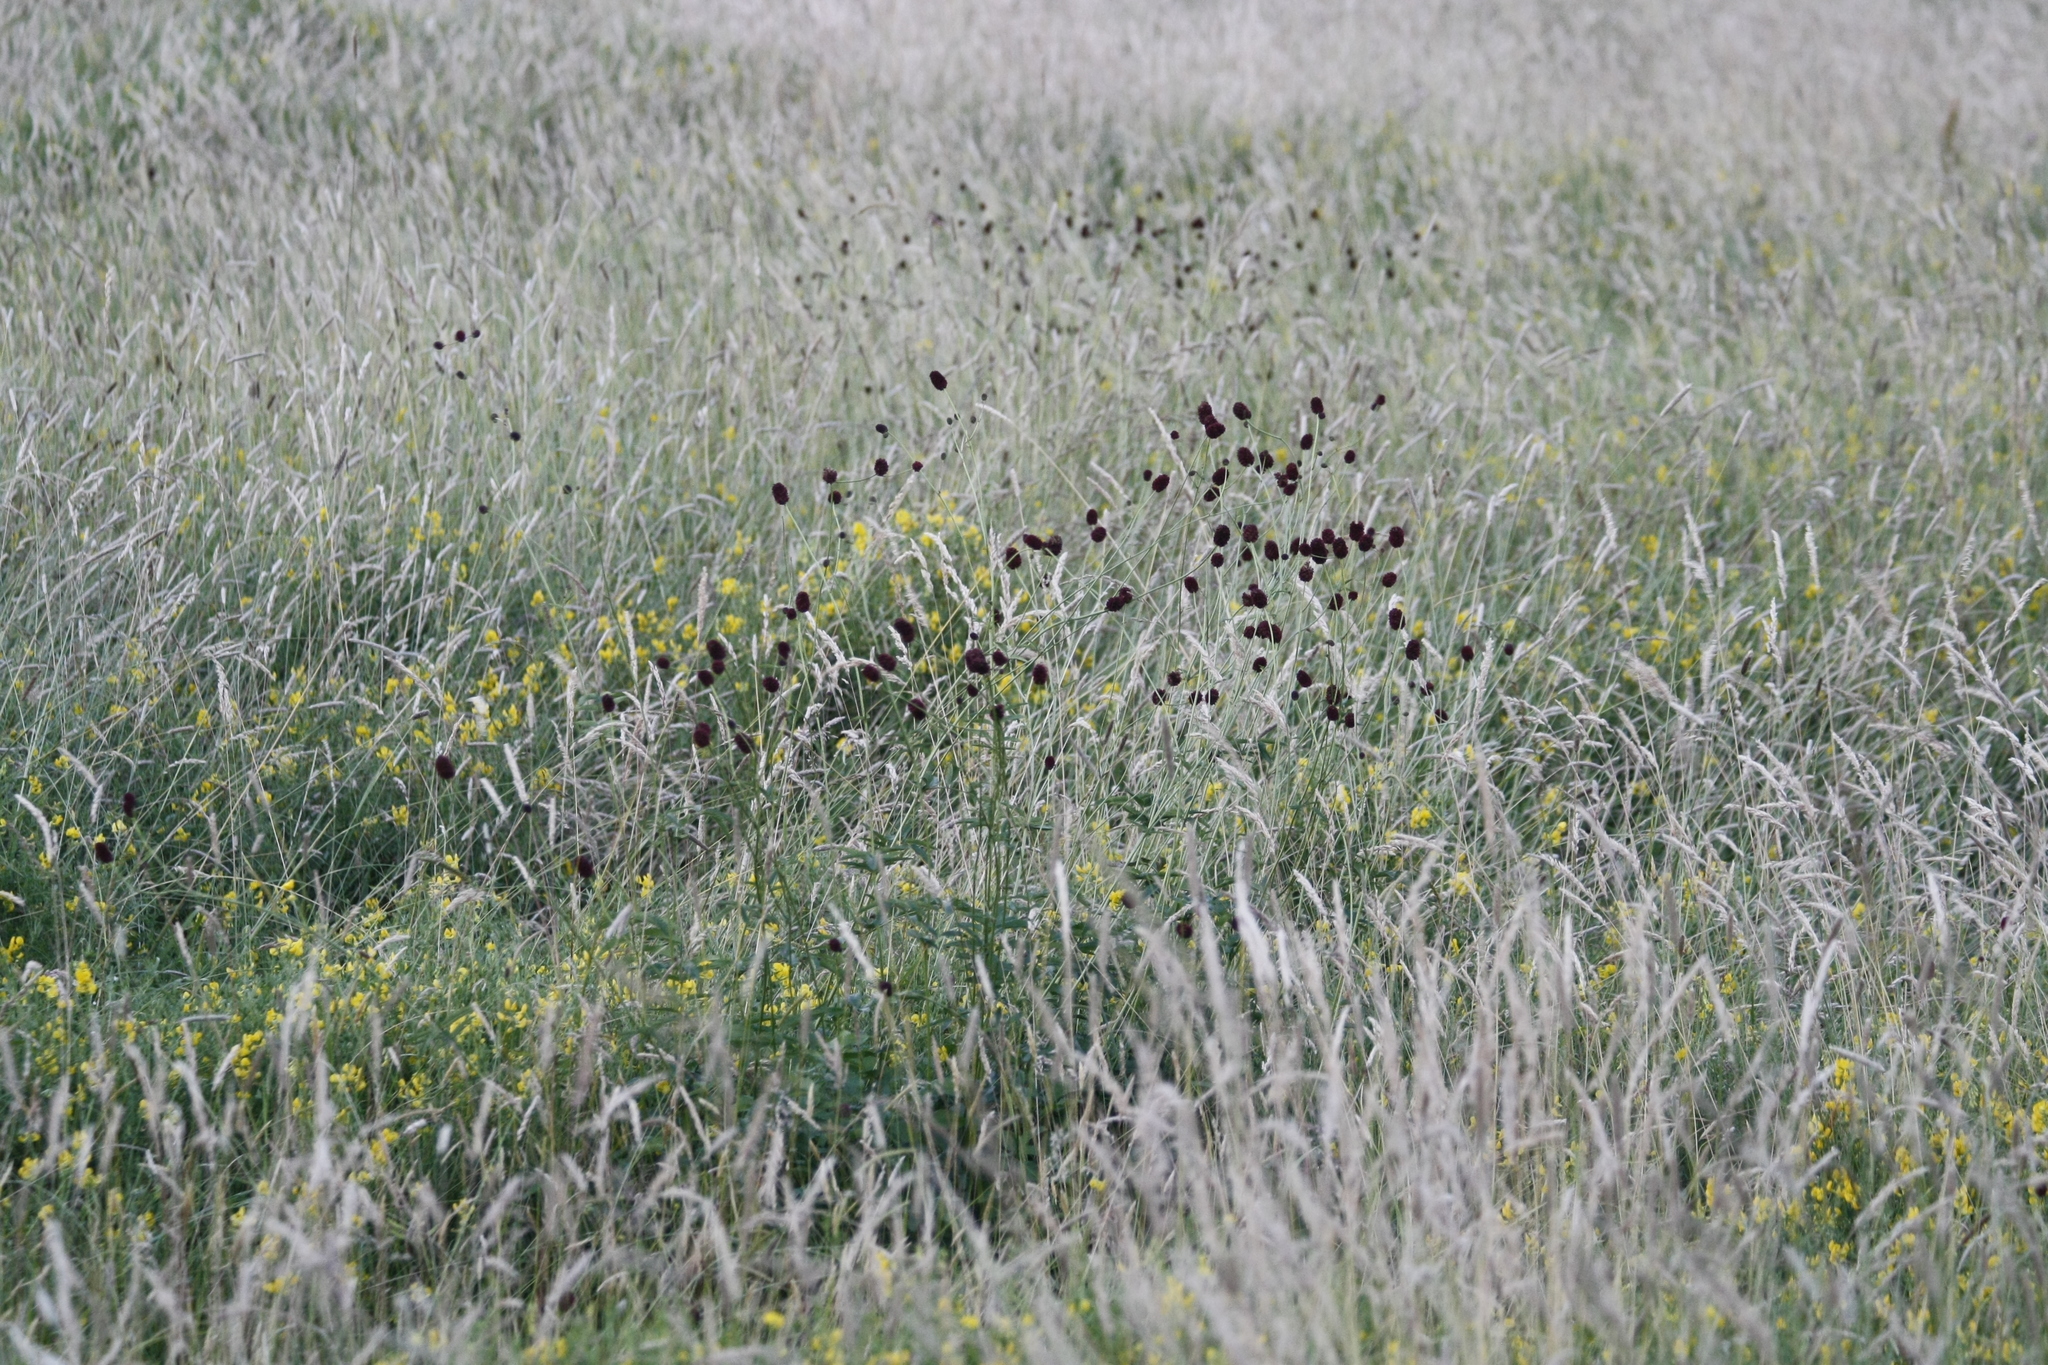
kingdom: Plantae
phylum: Tracheophyta
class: Magnoliopsida
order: Rosales
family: Rosaceae
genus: Sanguisorba
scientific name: Sanguisorba officinalis
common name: Great burnet
